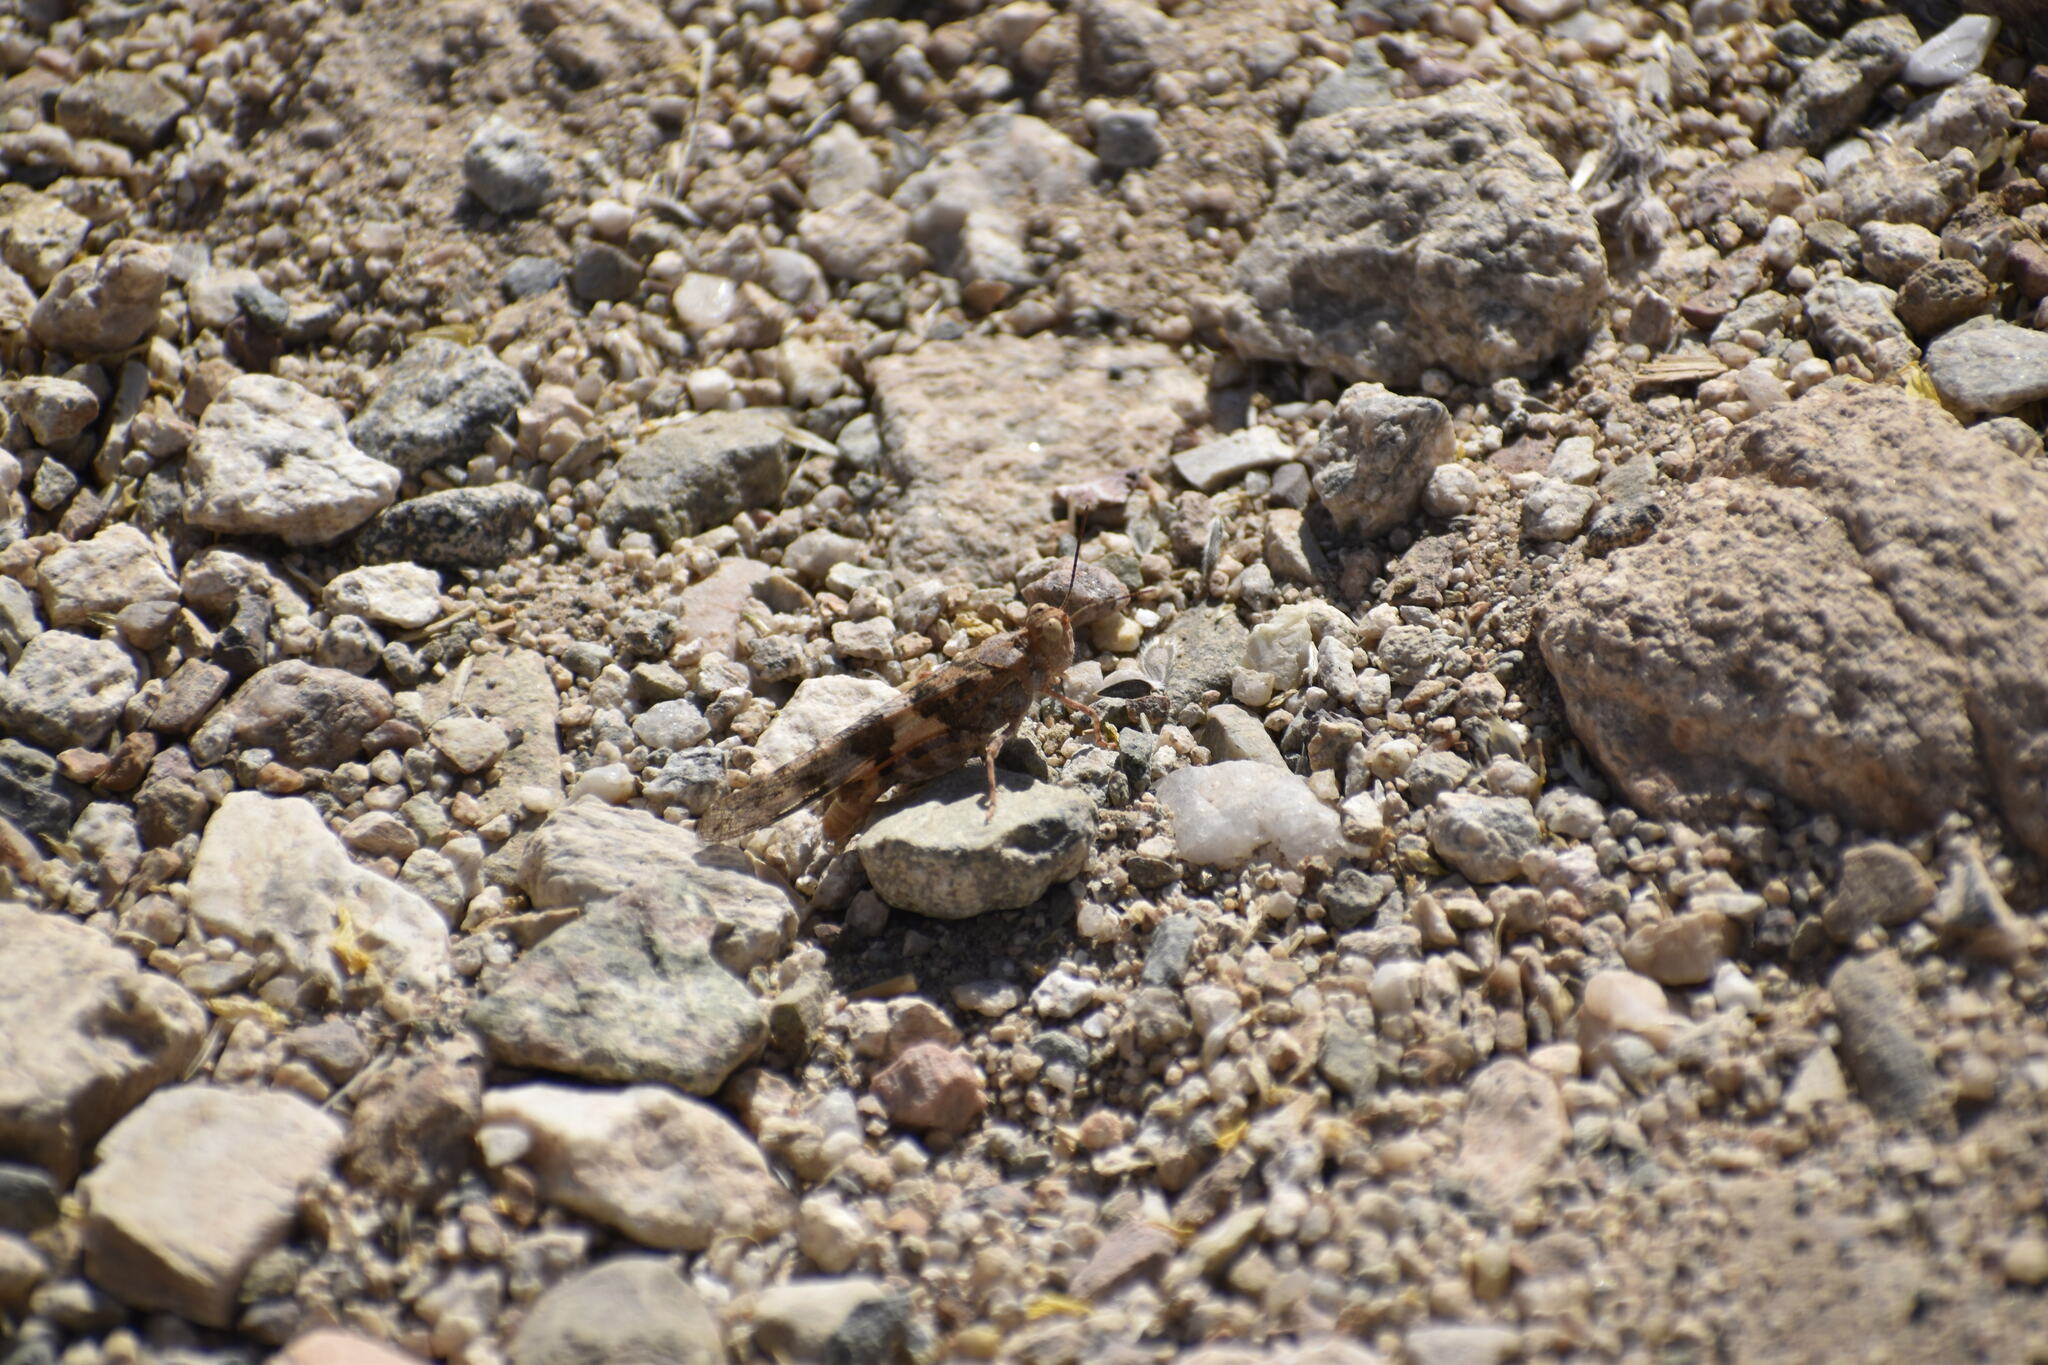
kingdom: Animalia
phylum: Arthropoda
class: Insecta
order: Orthoptera
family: Acrididae
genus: Trimerotropis
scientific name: Trimerotropis pallidipennis
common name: Pallid-winged grasshopper
